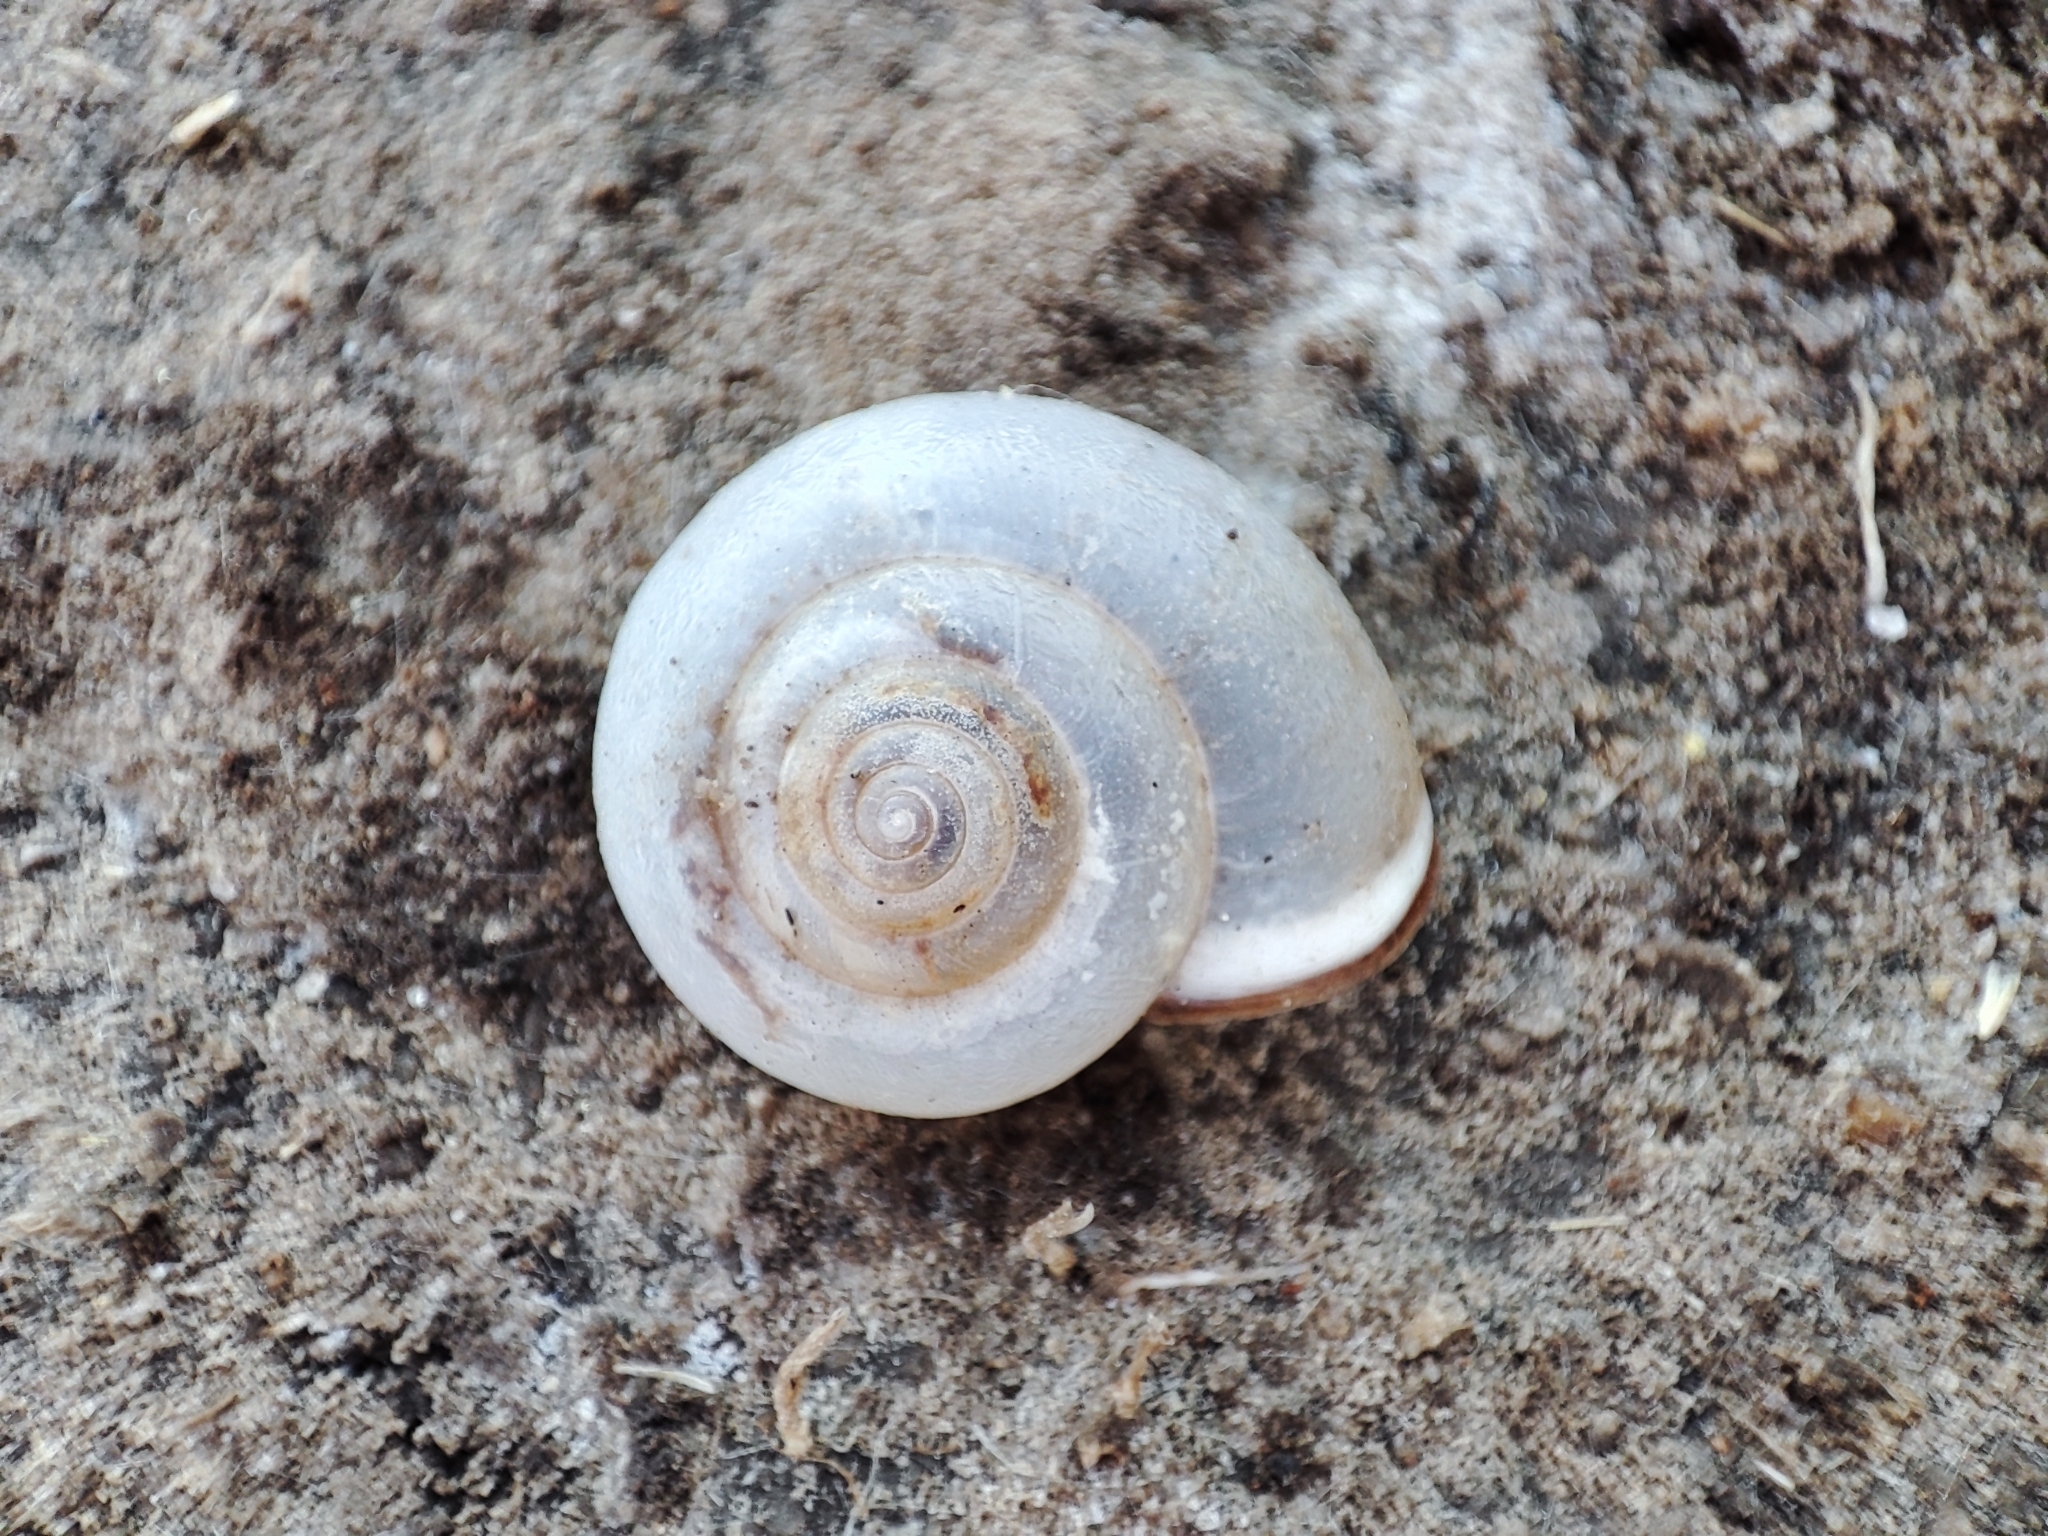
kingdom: Animalia
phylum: Mollusca
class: Gastropoda
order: Stylommatophora
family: Hygromiidae
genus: Monacha
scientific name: Monacha cartusiana
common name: Carthusian snail
